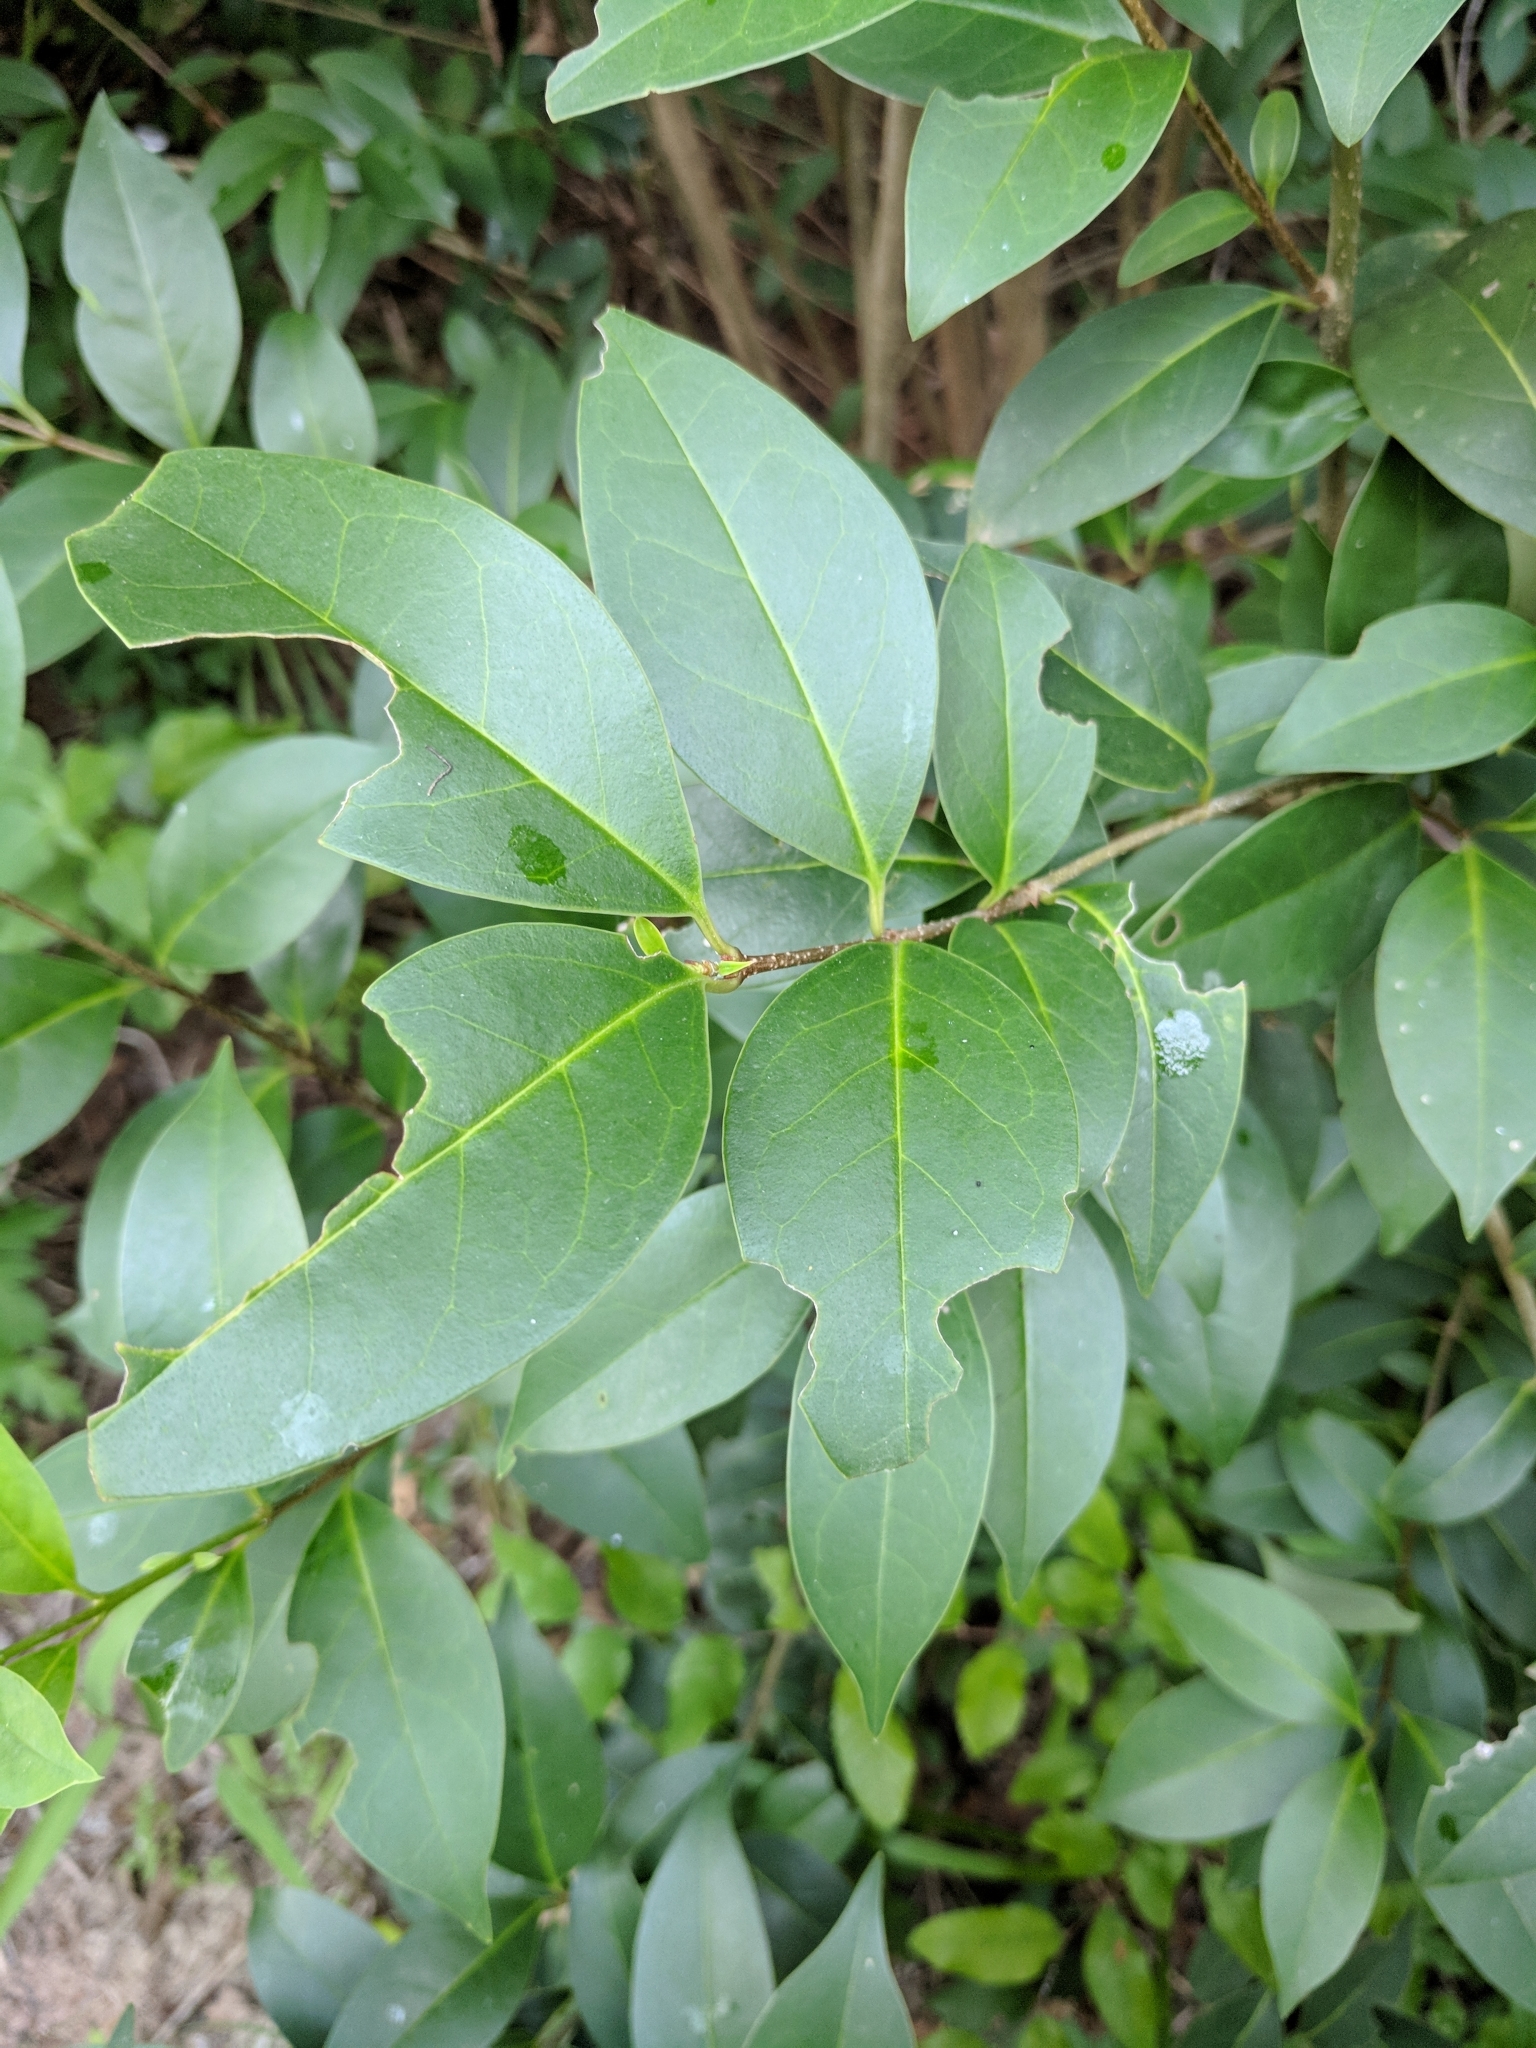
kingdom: Plantae
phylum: Tracheophyta
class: Magnoliopsida
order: Lamiales
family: Oleaceae
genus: Ligustrum
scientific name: Ligustrum lucidum
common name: Glossy privet
